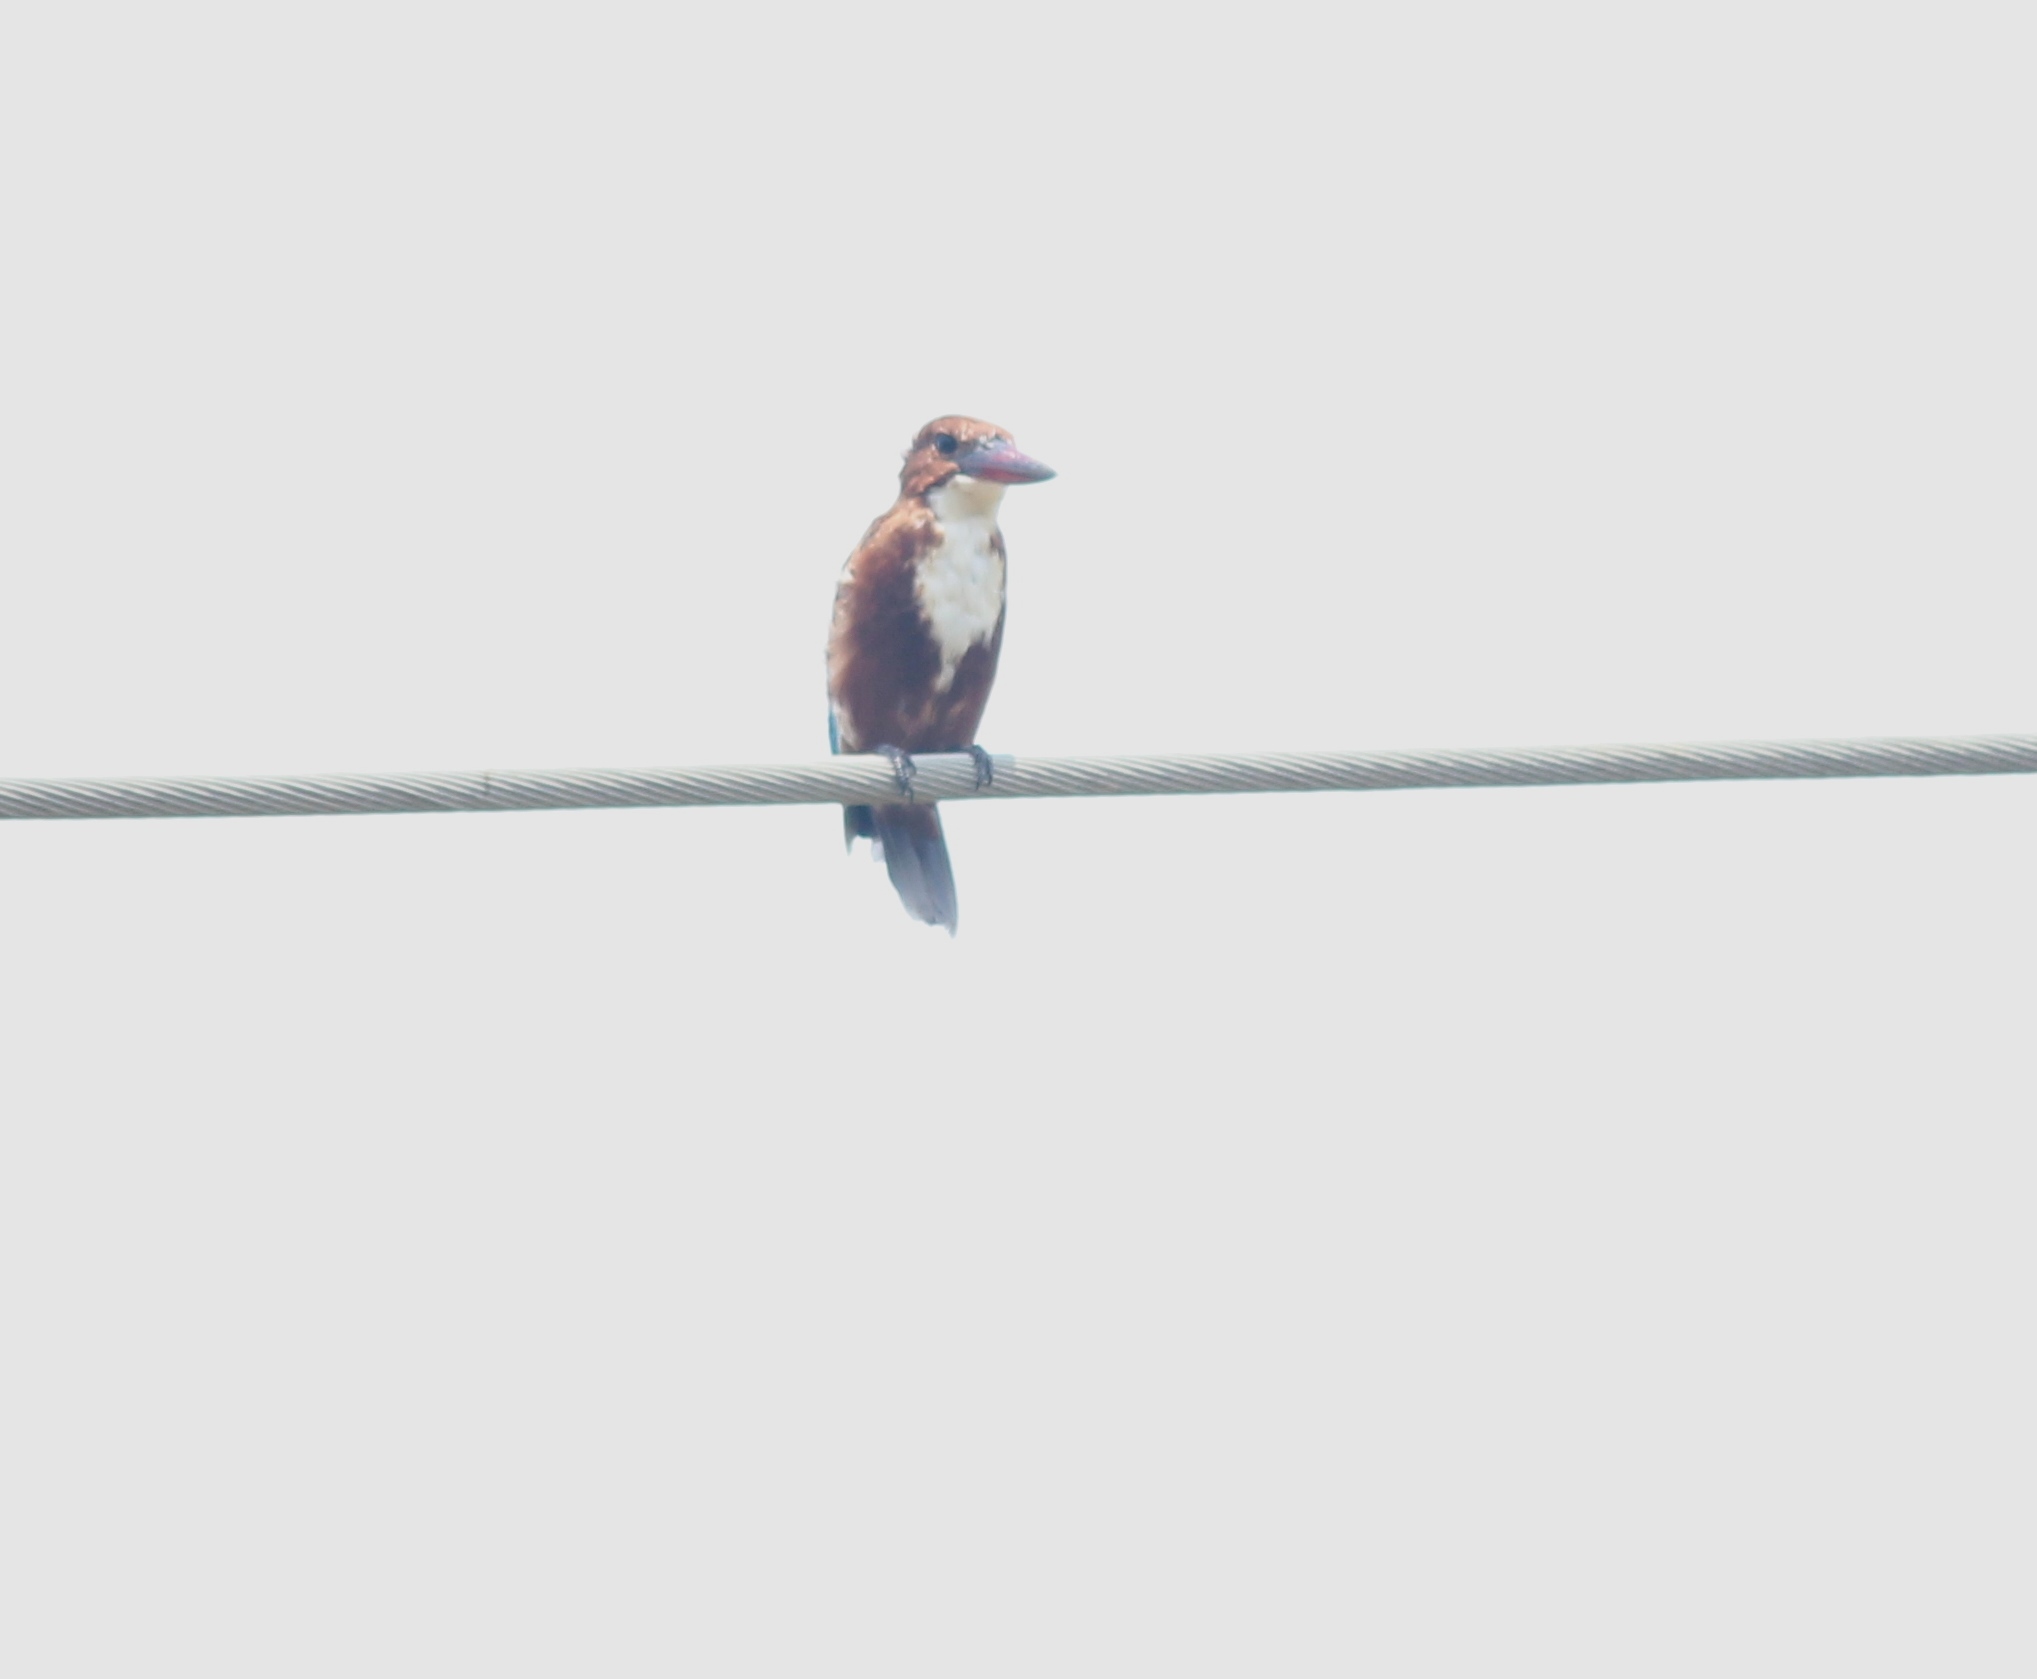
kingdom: Animalia
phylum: Chordata
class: Aves
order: Coraciiformes
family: Alcedinidae
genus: Halcyon
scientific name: Halcyon smyrnensis
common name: White-throated kingfisher
